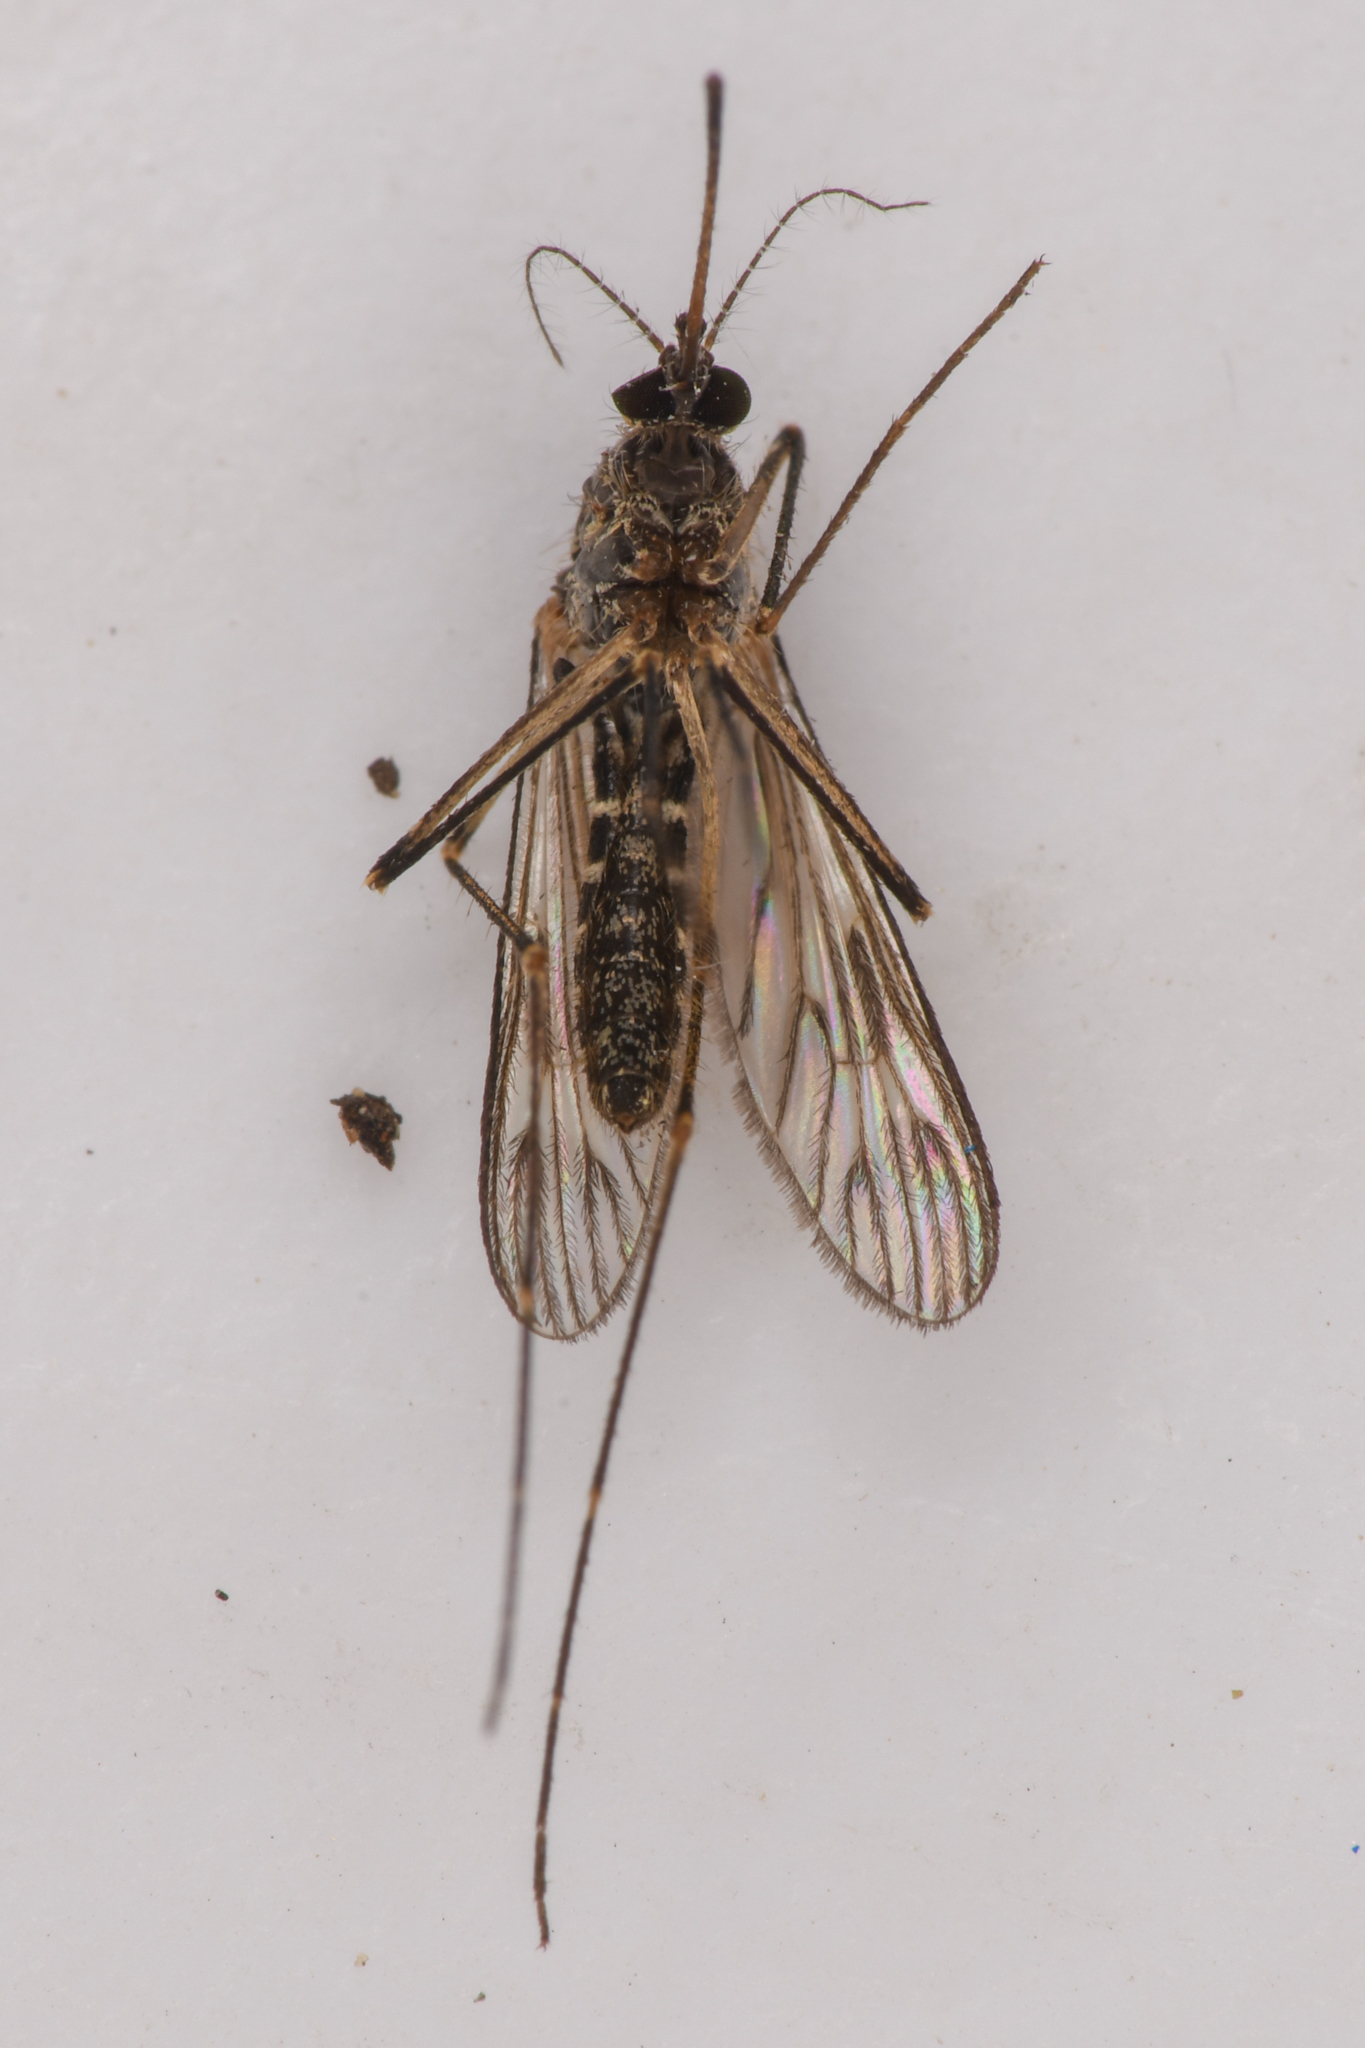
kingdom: Animalia
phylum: Arthropoda
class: Insecta
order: Diptera
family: Culicidae
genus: Culiseta
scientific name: Culiseta incidens
